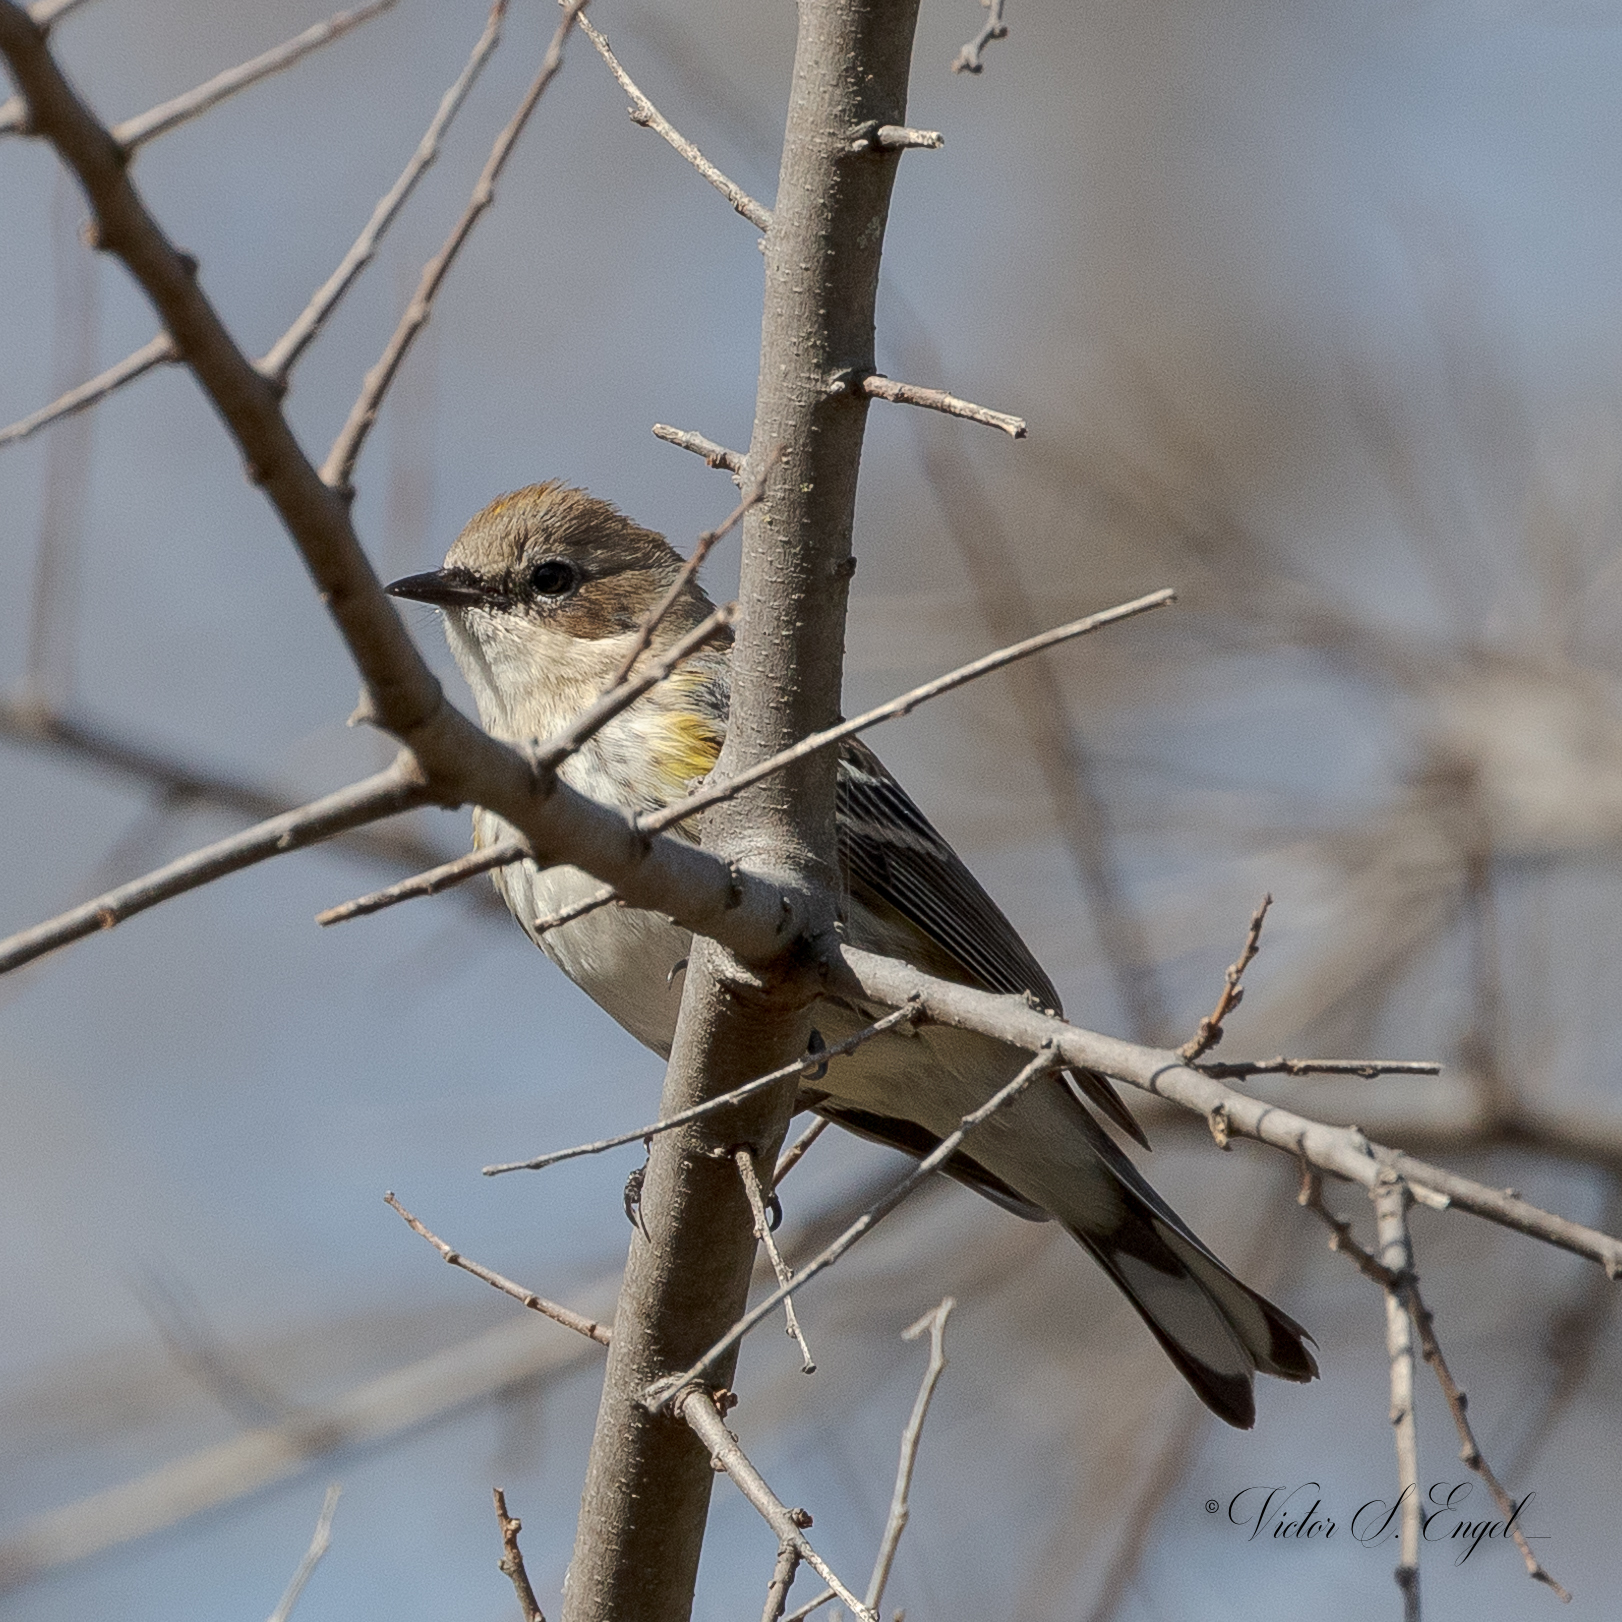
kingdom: Animalia
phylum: Chordata
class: Aves
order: Passeriformes
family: Parulidae
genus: Setophaga
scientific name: Setophaga coronata
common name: Myrtle warbler
